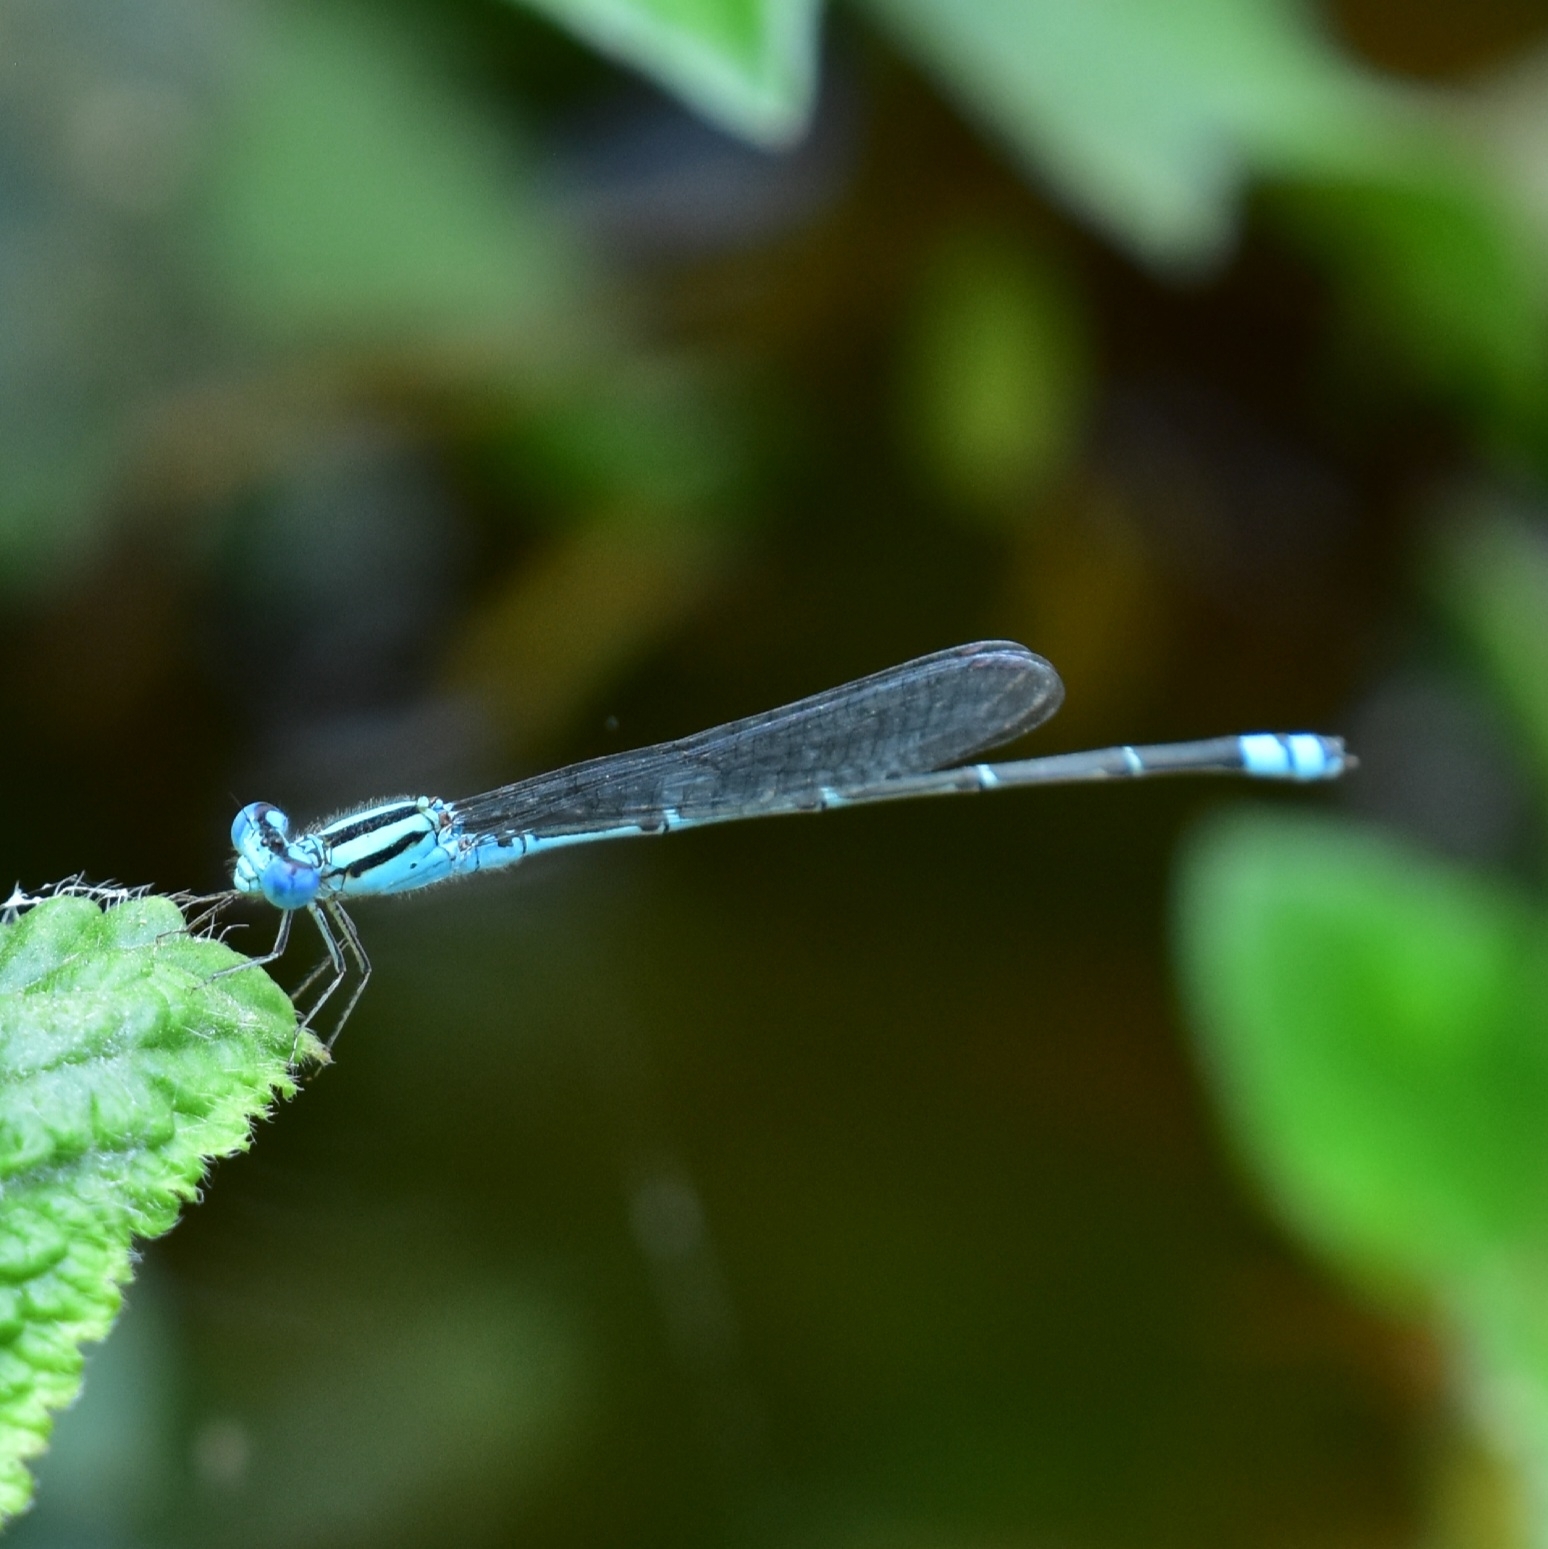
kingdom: Animalia
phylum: Arthropoda
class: Insecta
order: Odonata
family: Coenagrionidae
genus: Pseudagrion
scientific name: Pseudagrion microcephalum
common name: Blue riverdamsel
